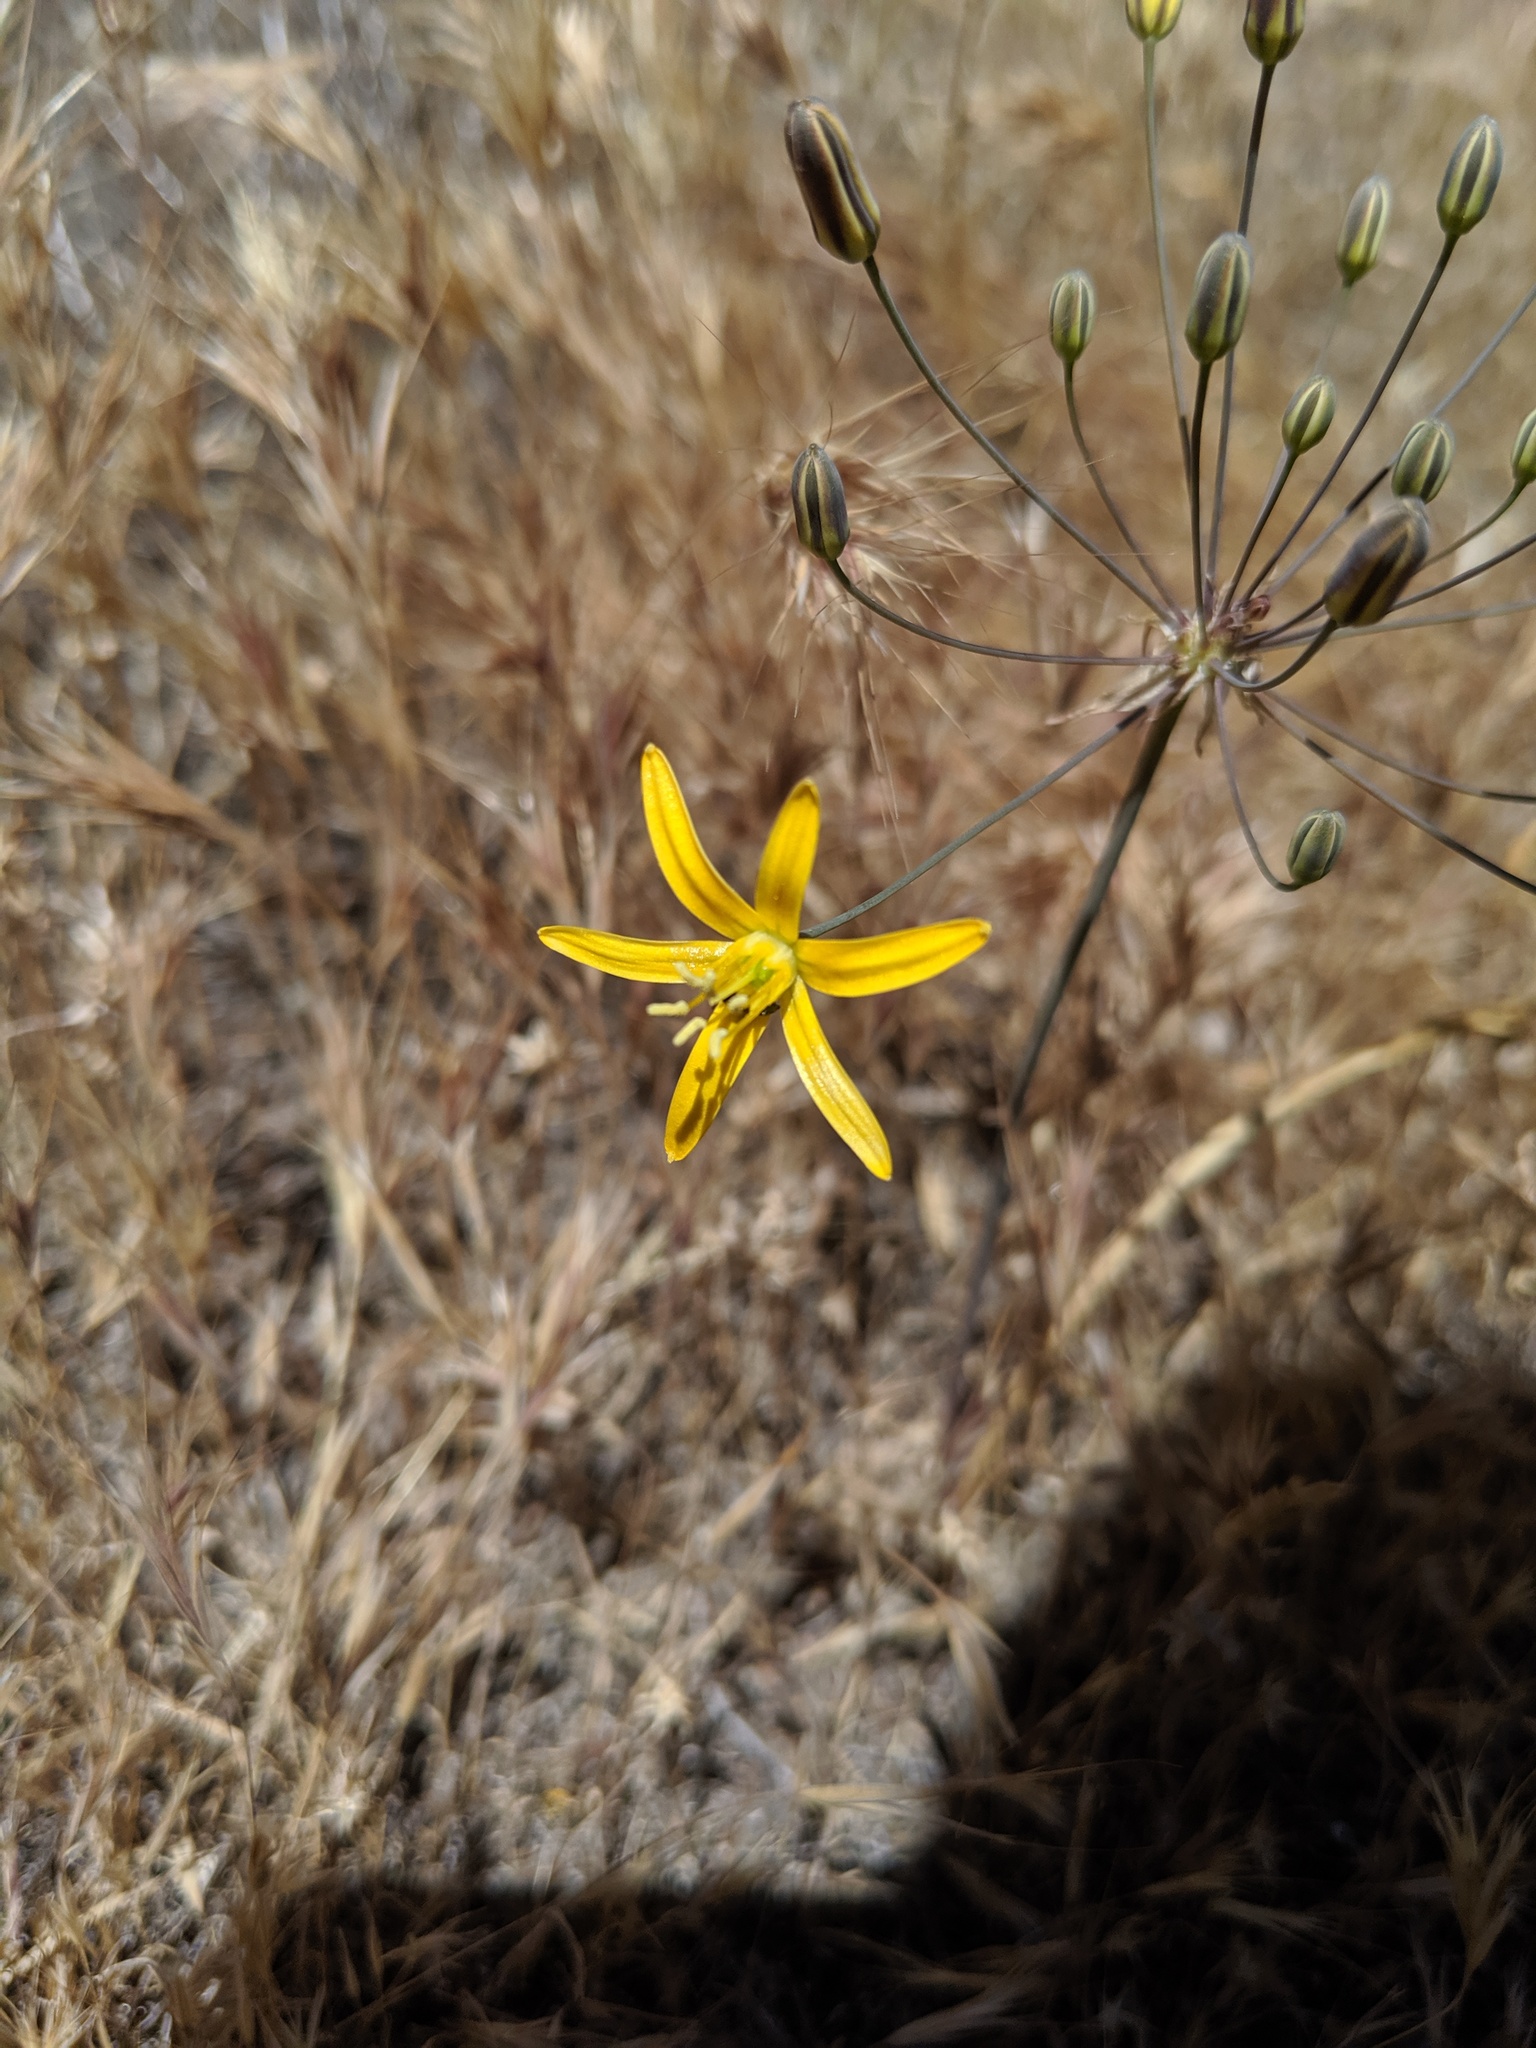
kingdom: Plantae
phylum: Tracheophyta
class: Liliopsida
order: Asparagales
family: Asparagaceae
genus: Bloomeria
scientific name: Bloomeria crocea
